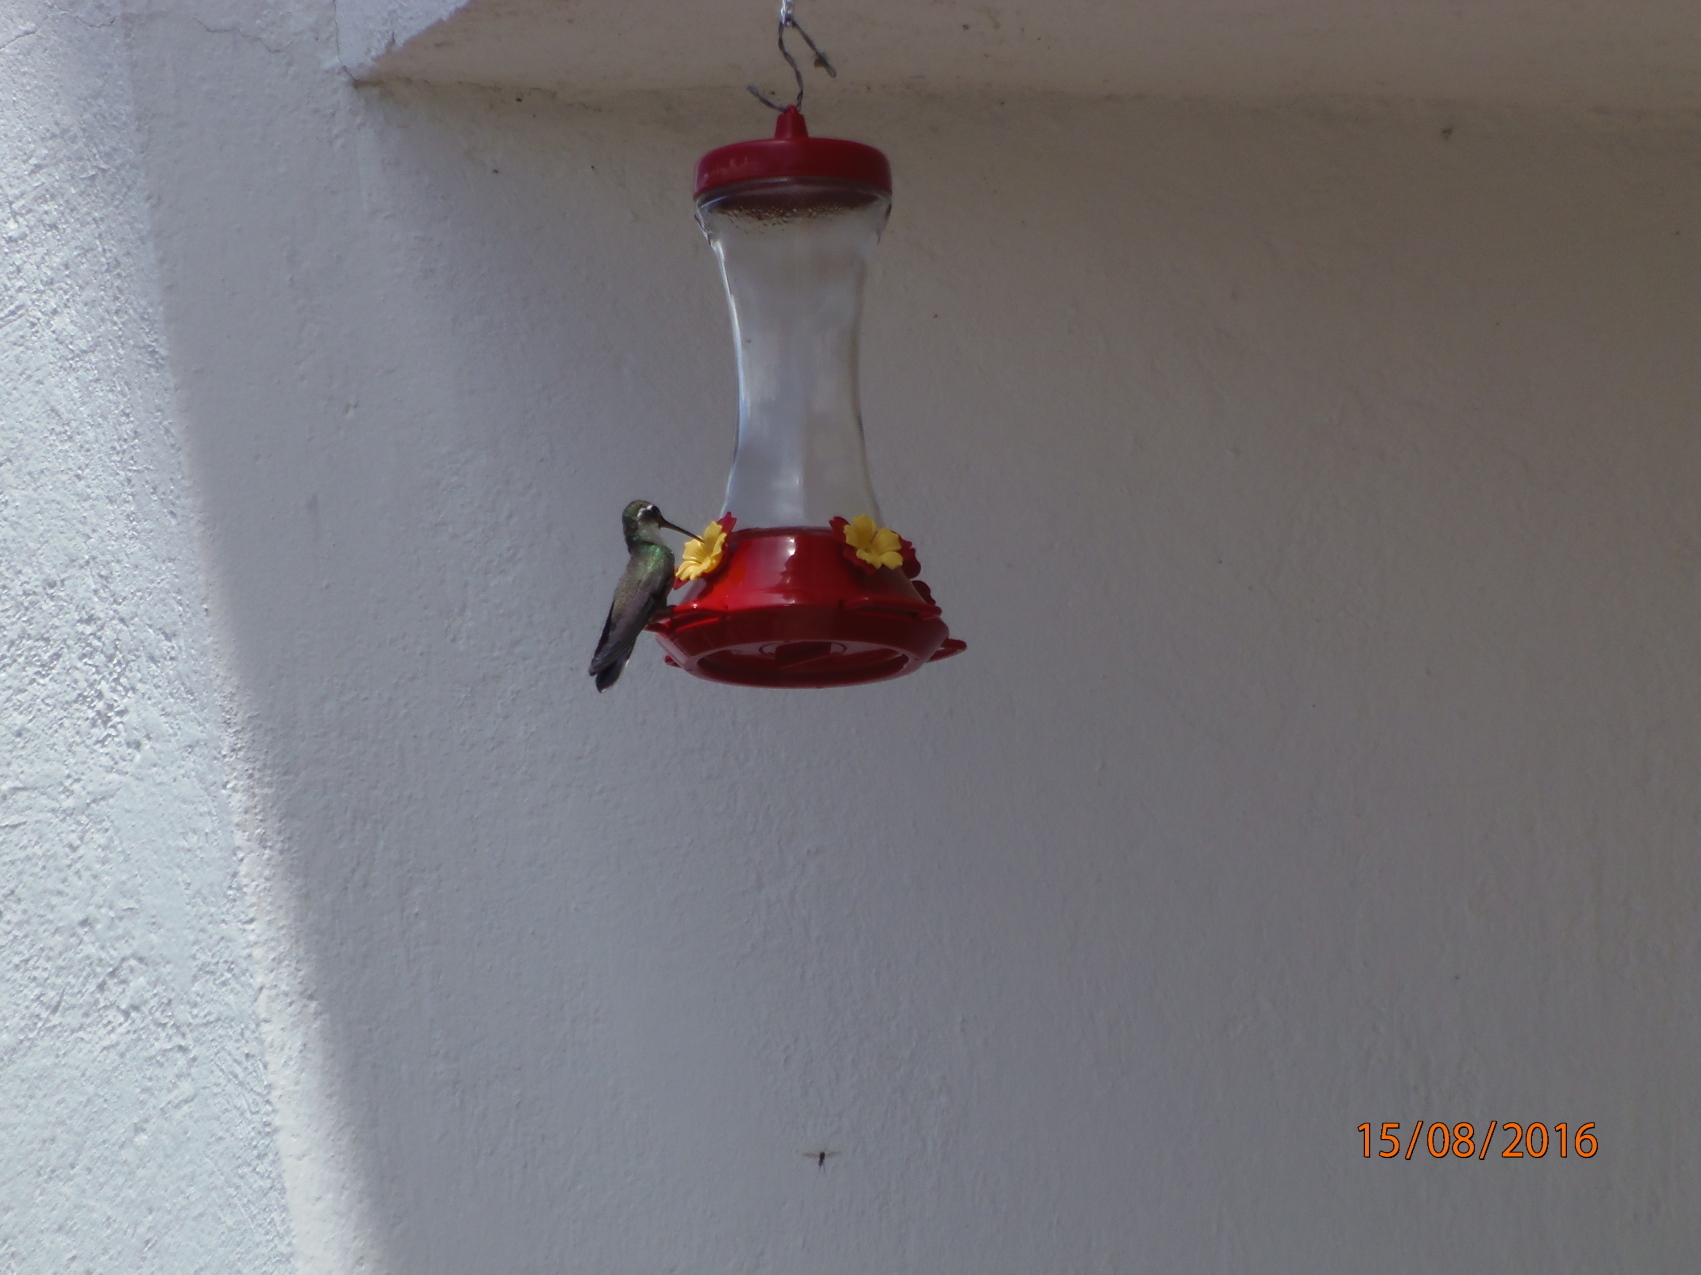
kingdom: Animalia
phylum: Chordata
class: Aves
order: Apodiformes
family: Trochilidae
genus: Cynanthus
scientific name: Cynanthus latirostris
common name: Broad-billed hummingbird
